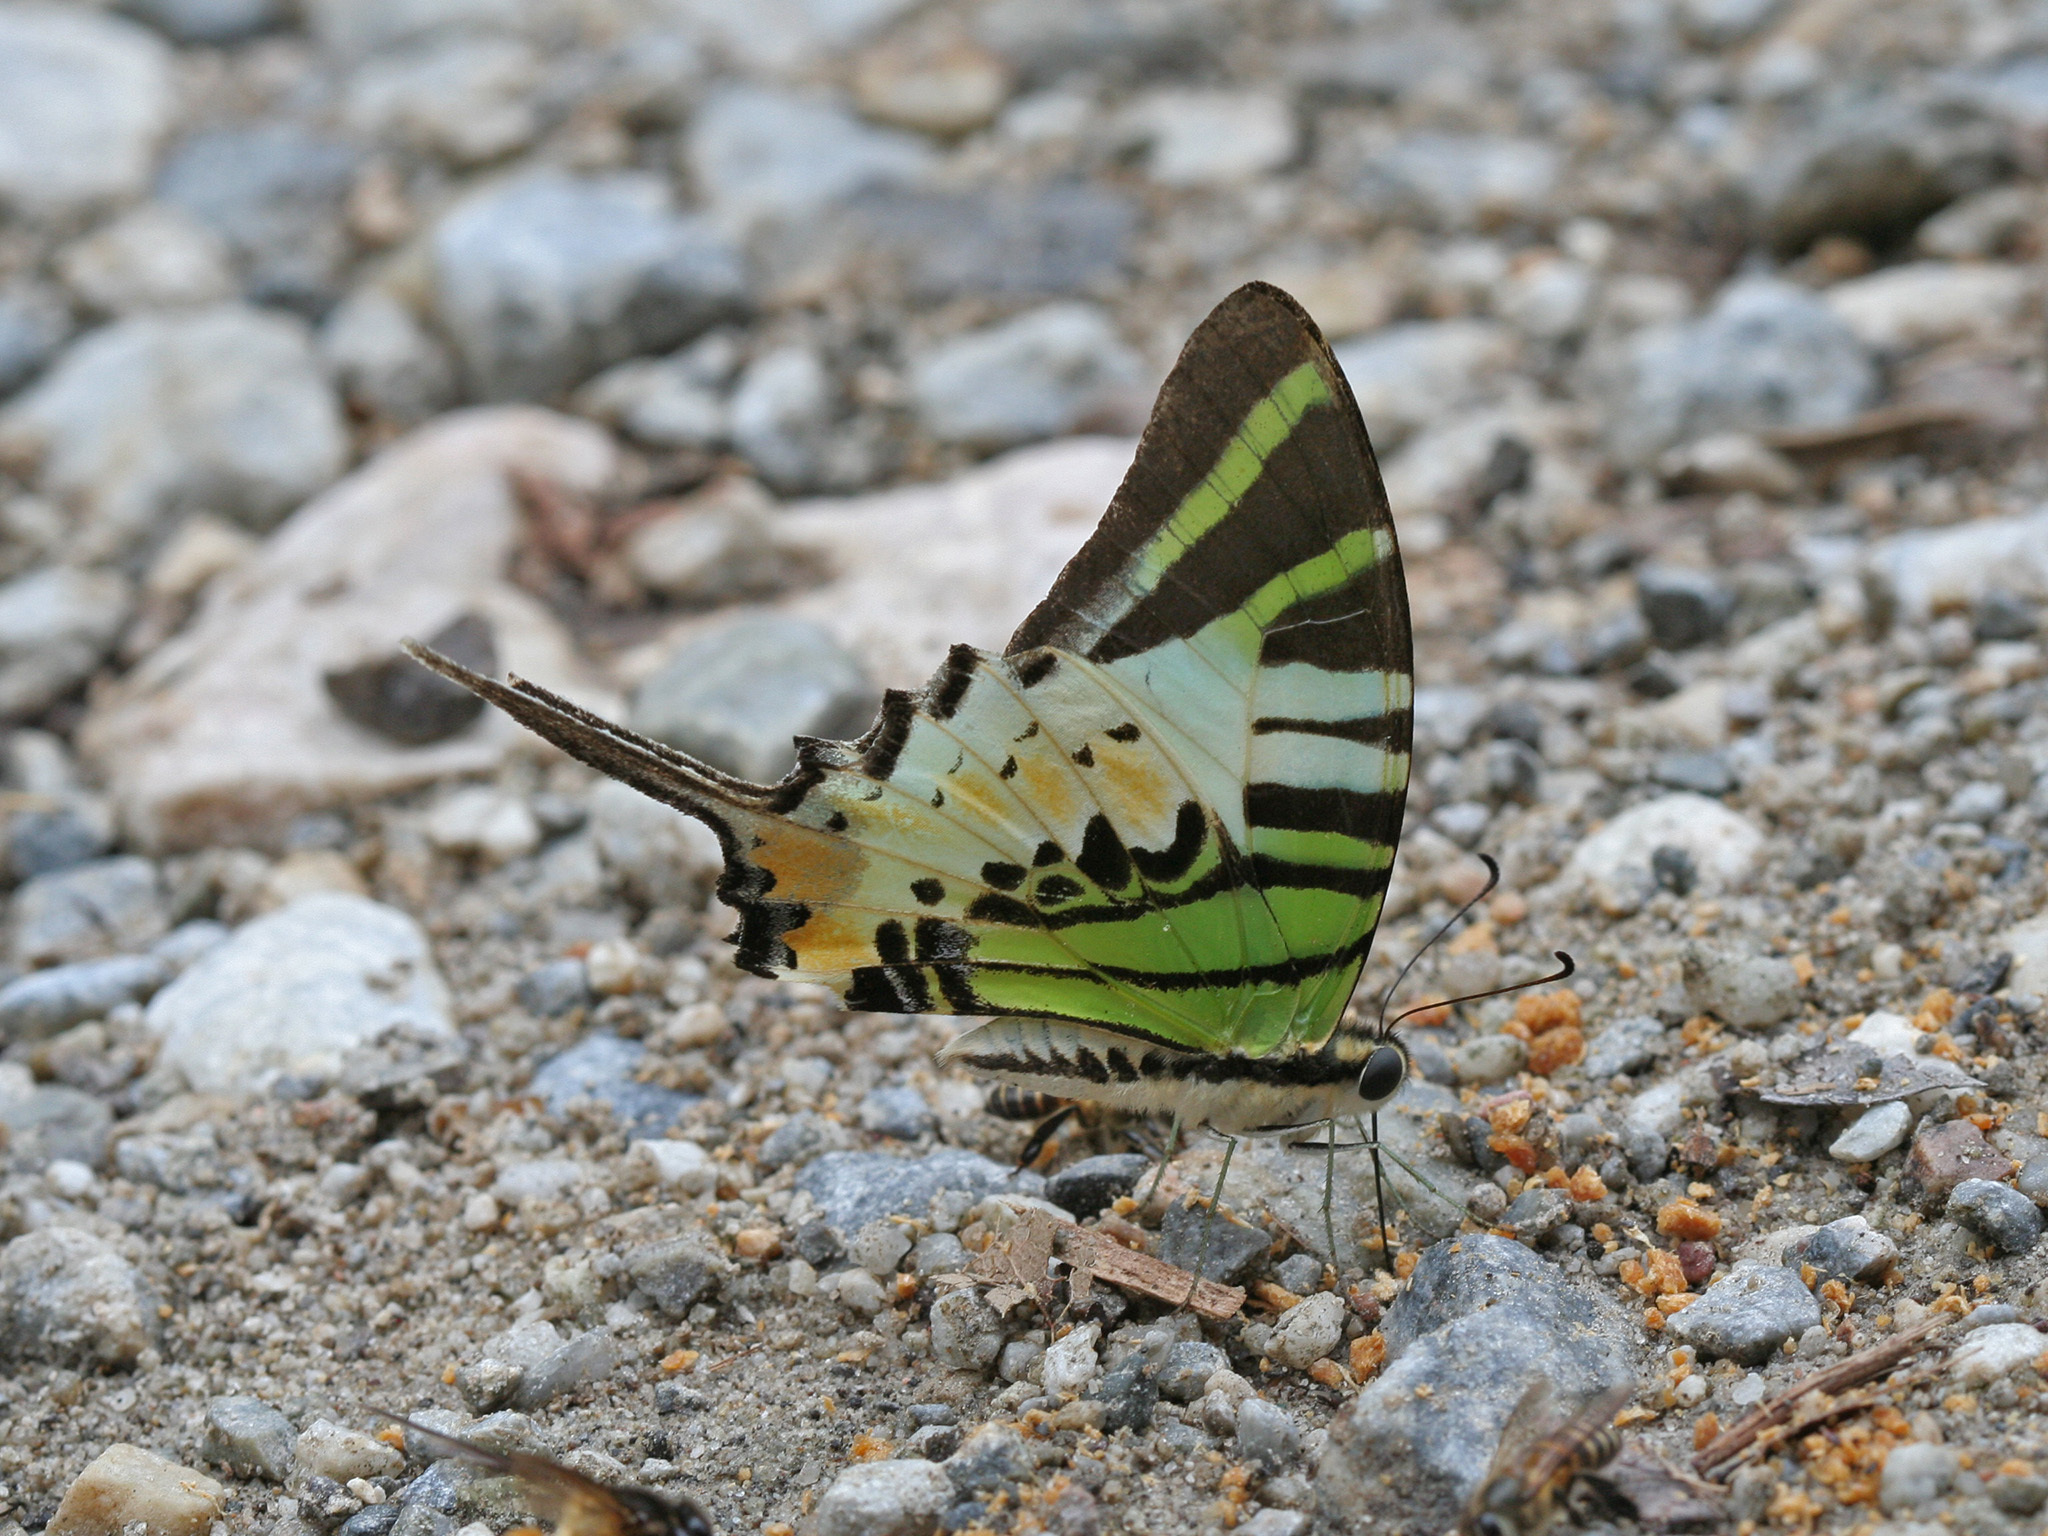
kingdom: Animalia
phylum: Arthropoda
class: Insecta
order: Lepidoptera
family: Papilionidae
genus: Graphium
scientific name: Graphium antiphates
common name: Fivebar swordtail
